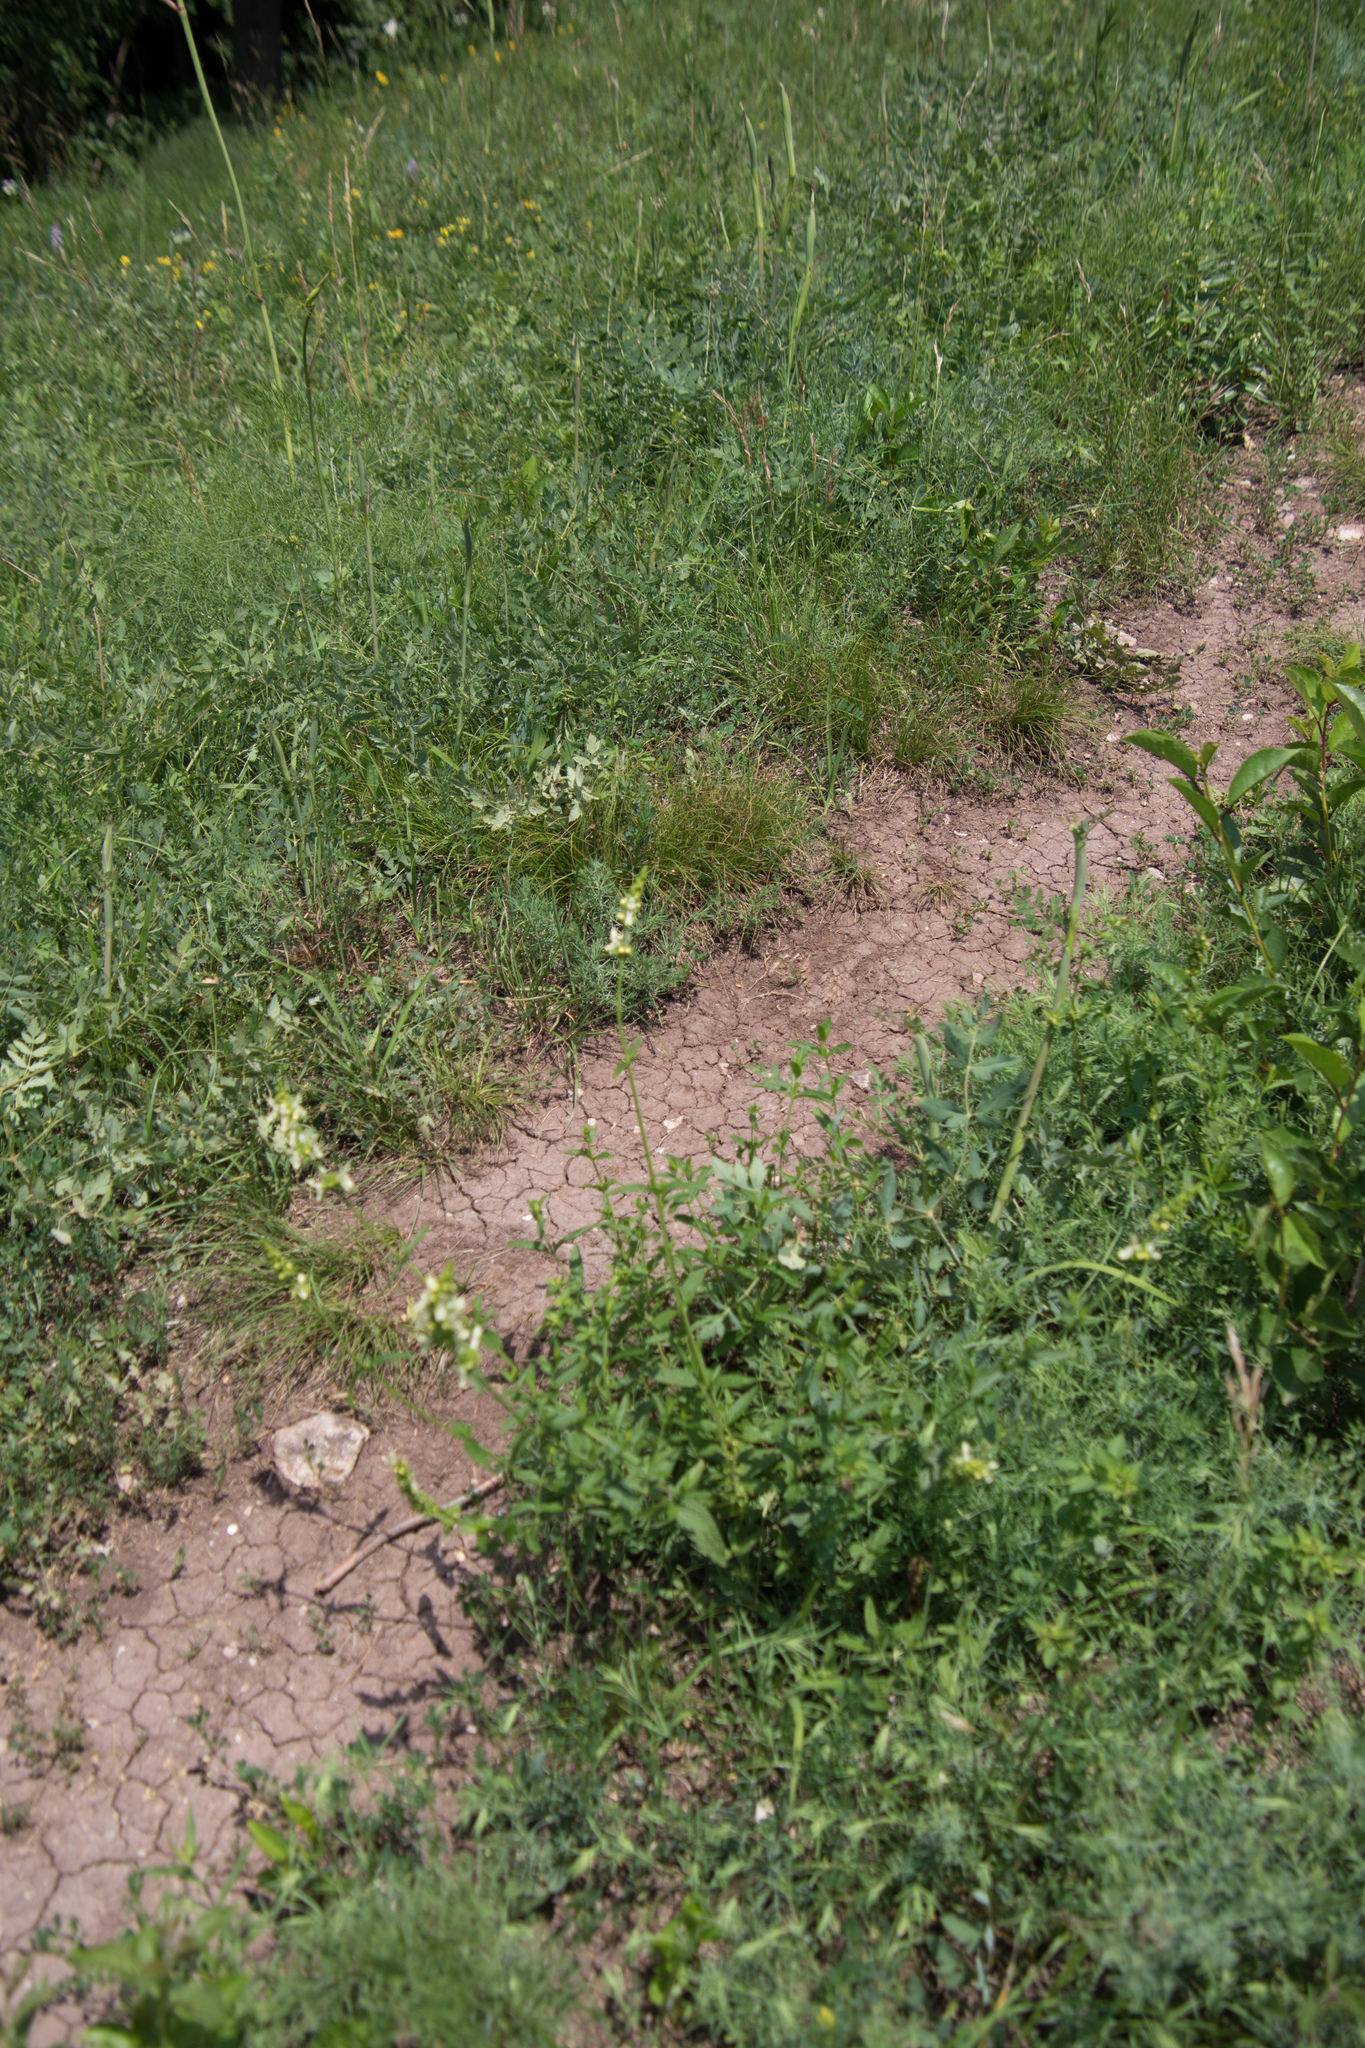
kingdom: Plantae
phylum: Tracheophyta
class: Magnoliopsida
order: Lamiales
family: Lamiaceae
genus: Stachys
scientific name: Stachys recta
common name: Perennial yellow-woundwort
